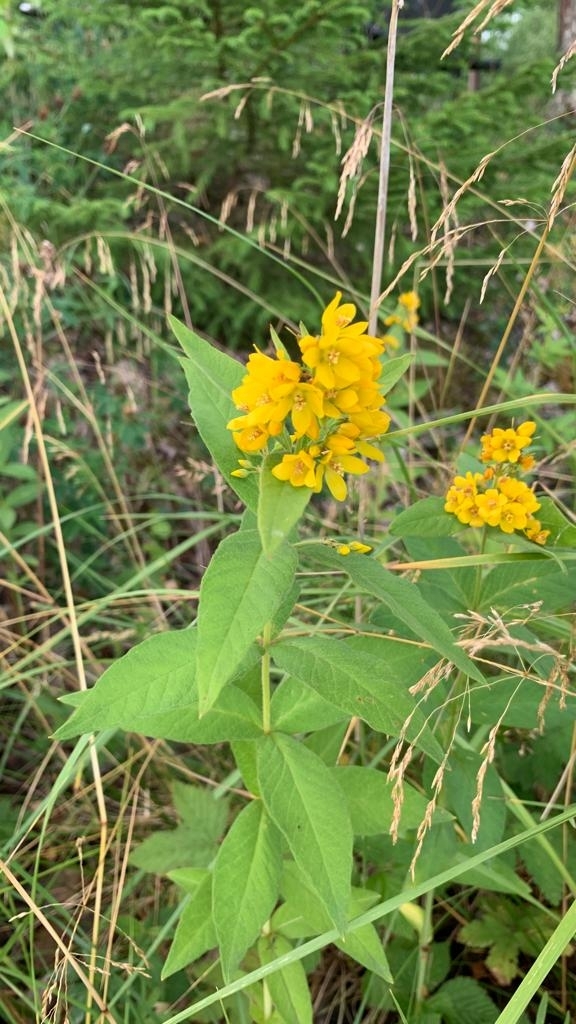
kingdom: Plantae
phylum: Tracheophyta
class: Magnoliopsida
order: Ericales
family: Primulaceae
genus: Lysimachia
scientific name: Lysimachia vulgaris
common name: Yellow loosestrife
